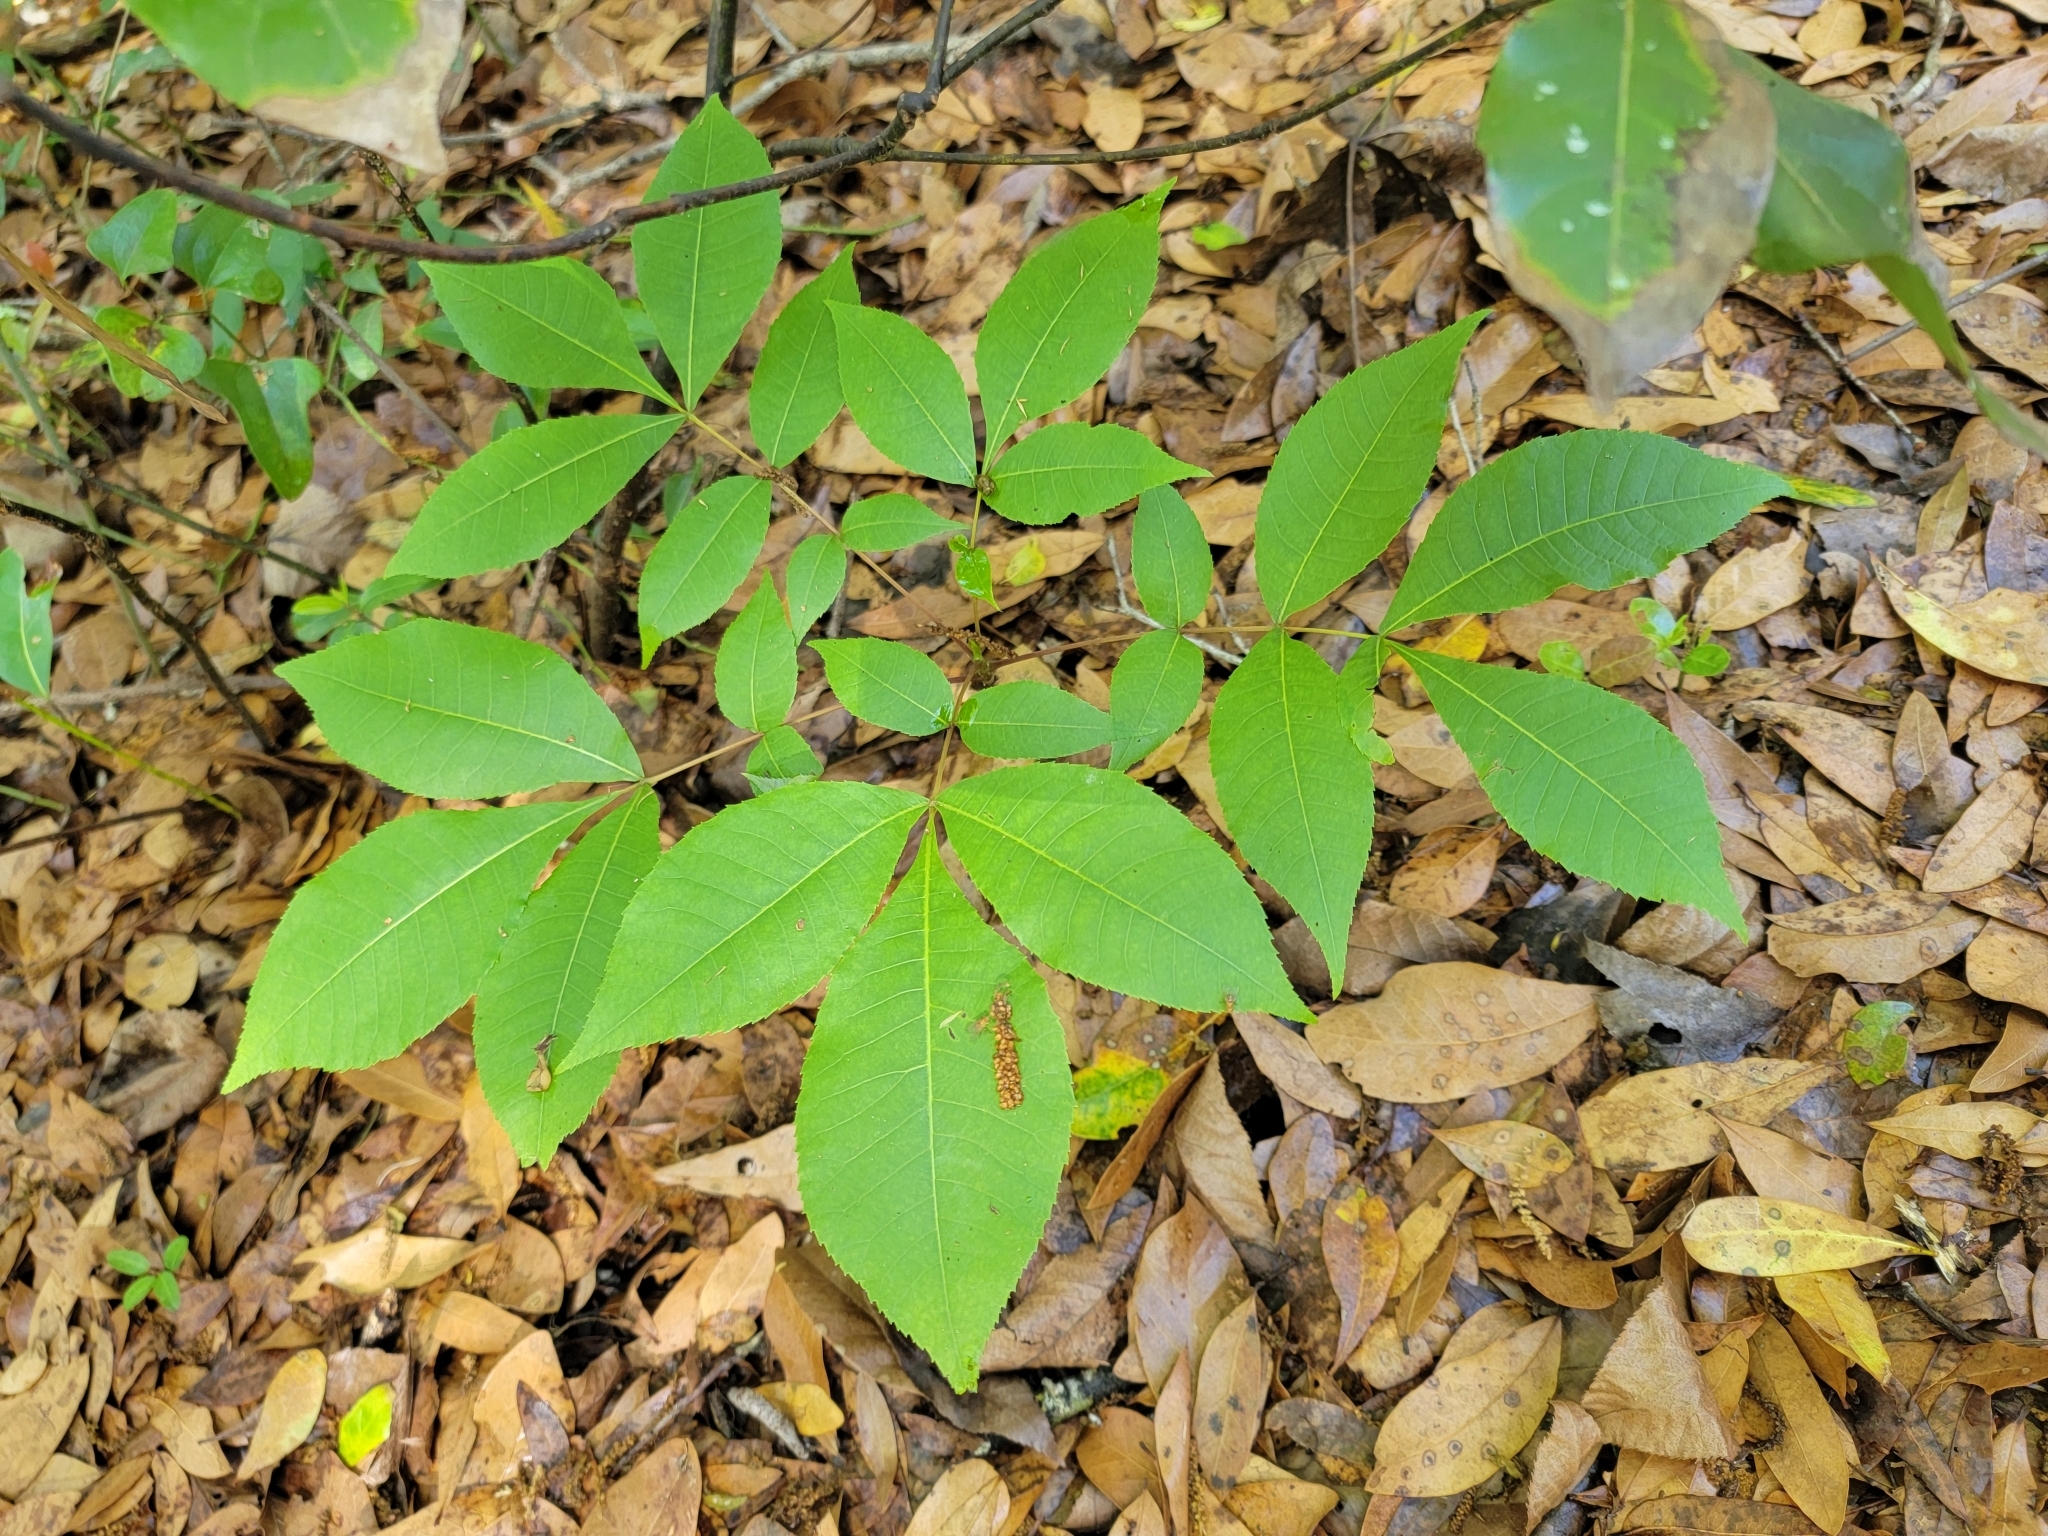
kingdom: Plantae
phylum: Tracheophyta
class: Magnoliopsida
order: Fagales
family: Juglandaceae
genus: Carya
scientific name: Carya glabra
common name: Pignut hickory
